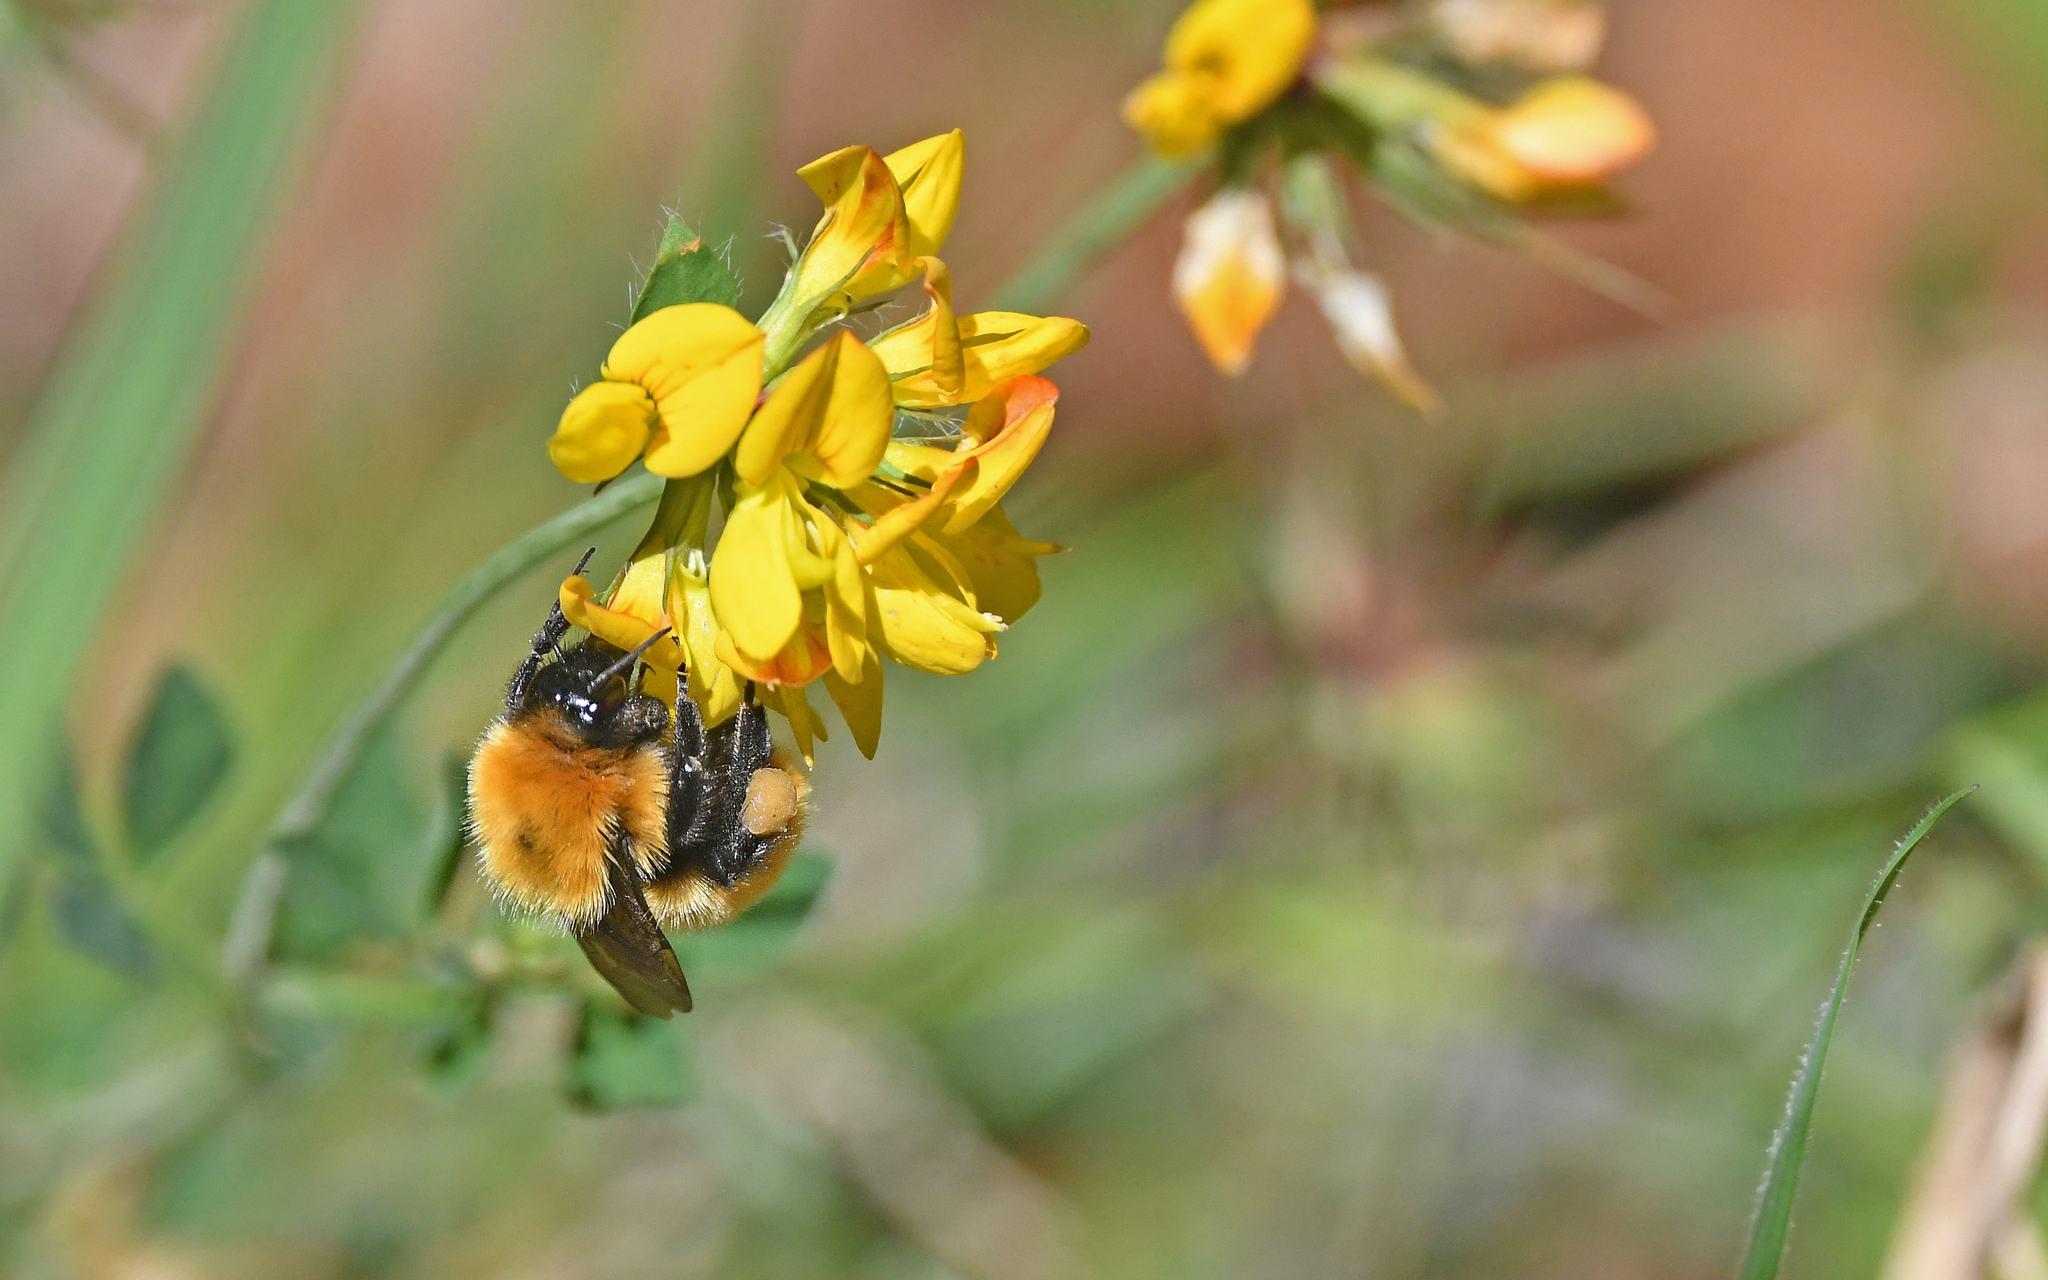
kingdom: Animalia
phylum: Arthropoda
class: Insecta
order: Hymenoptera
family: Apidae
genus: Bombus
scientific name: Bombus dahlbomii
